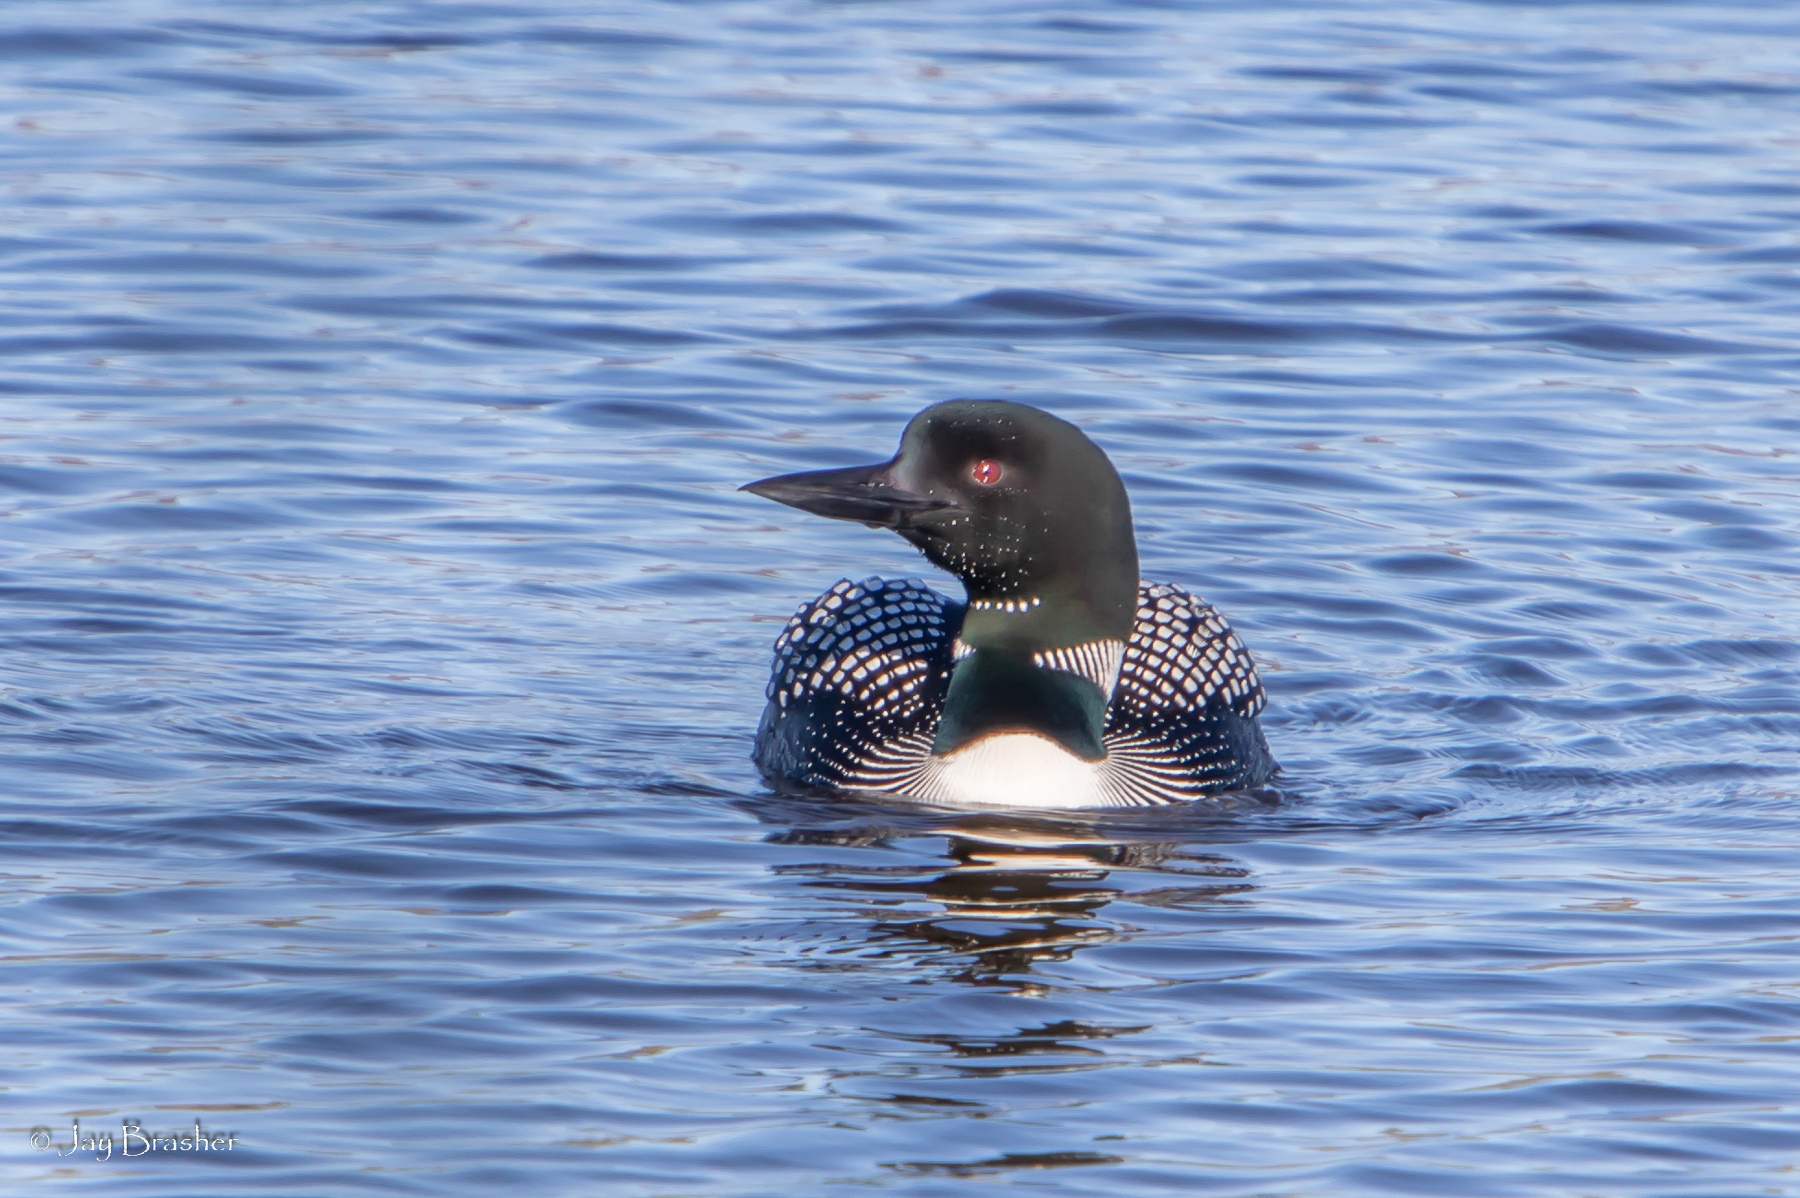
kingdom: Animalia
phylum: Chordata
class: Aves
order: Gaviiformes
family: Gaviidae
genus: Gavia
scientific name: Gavia immer
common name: Common loon
